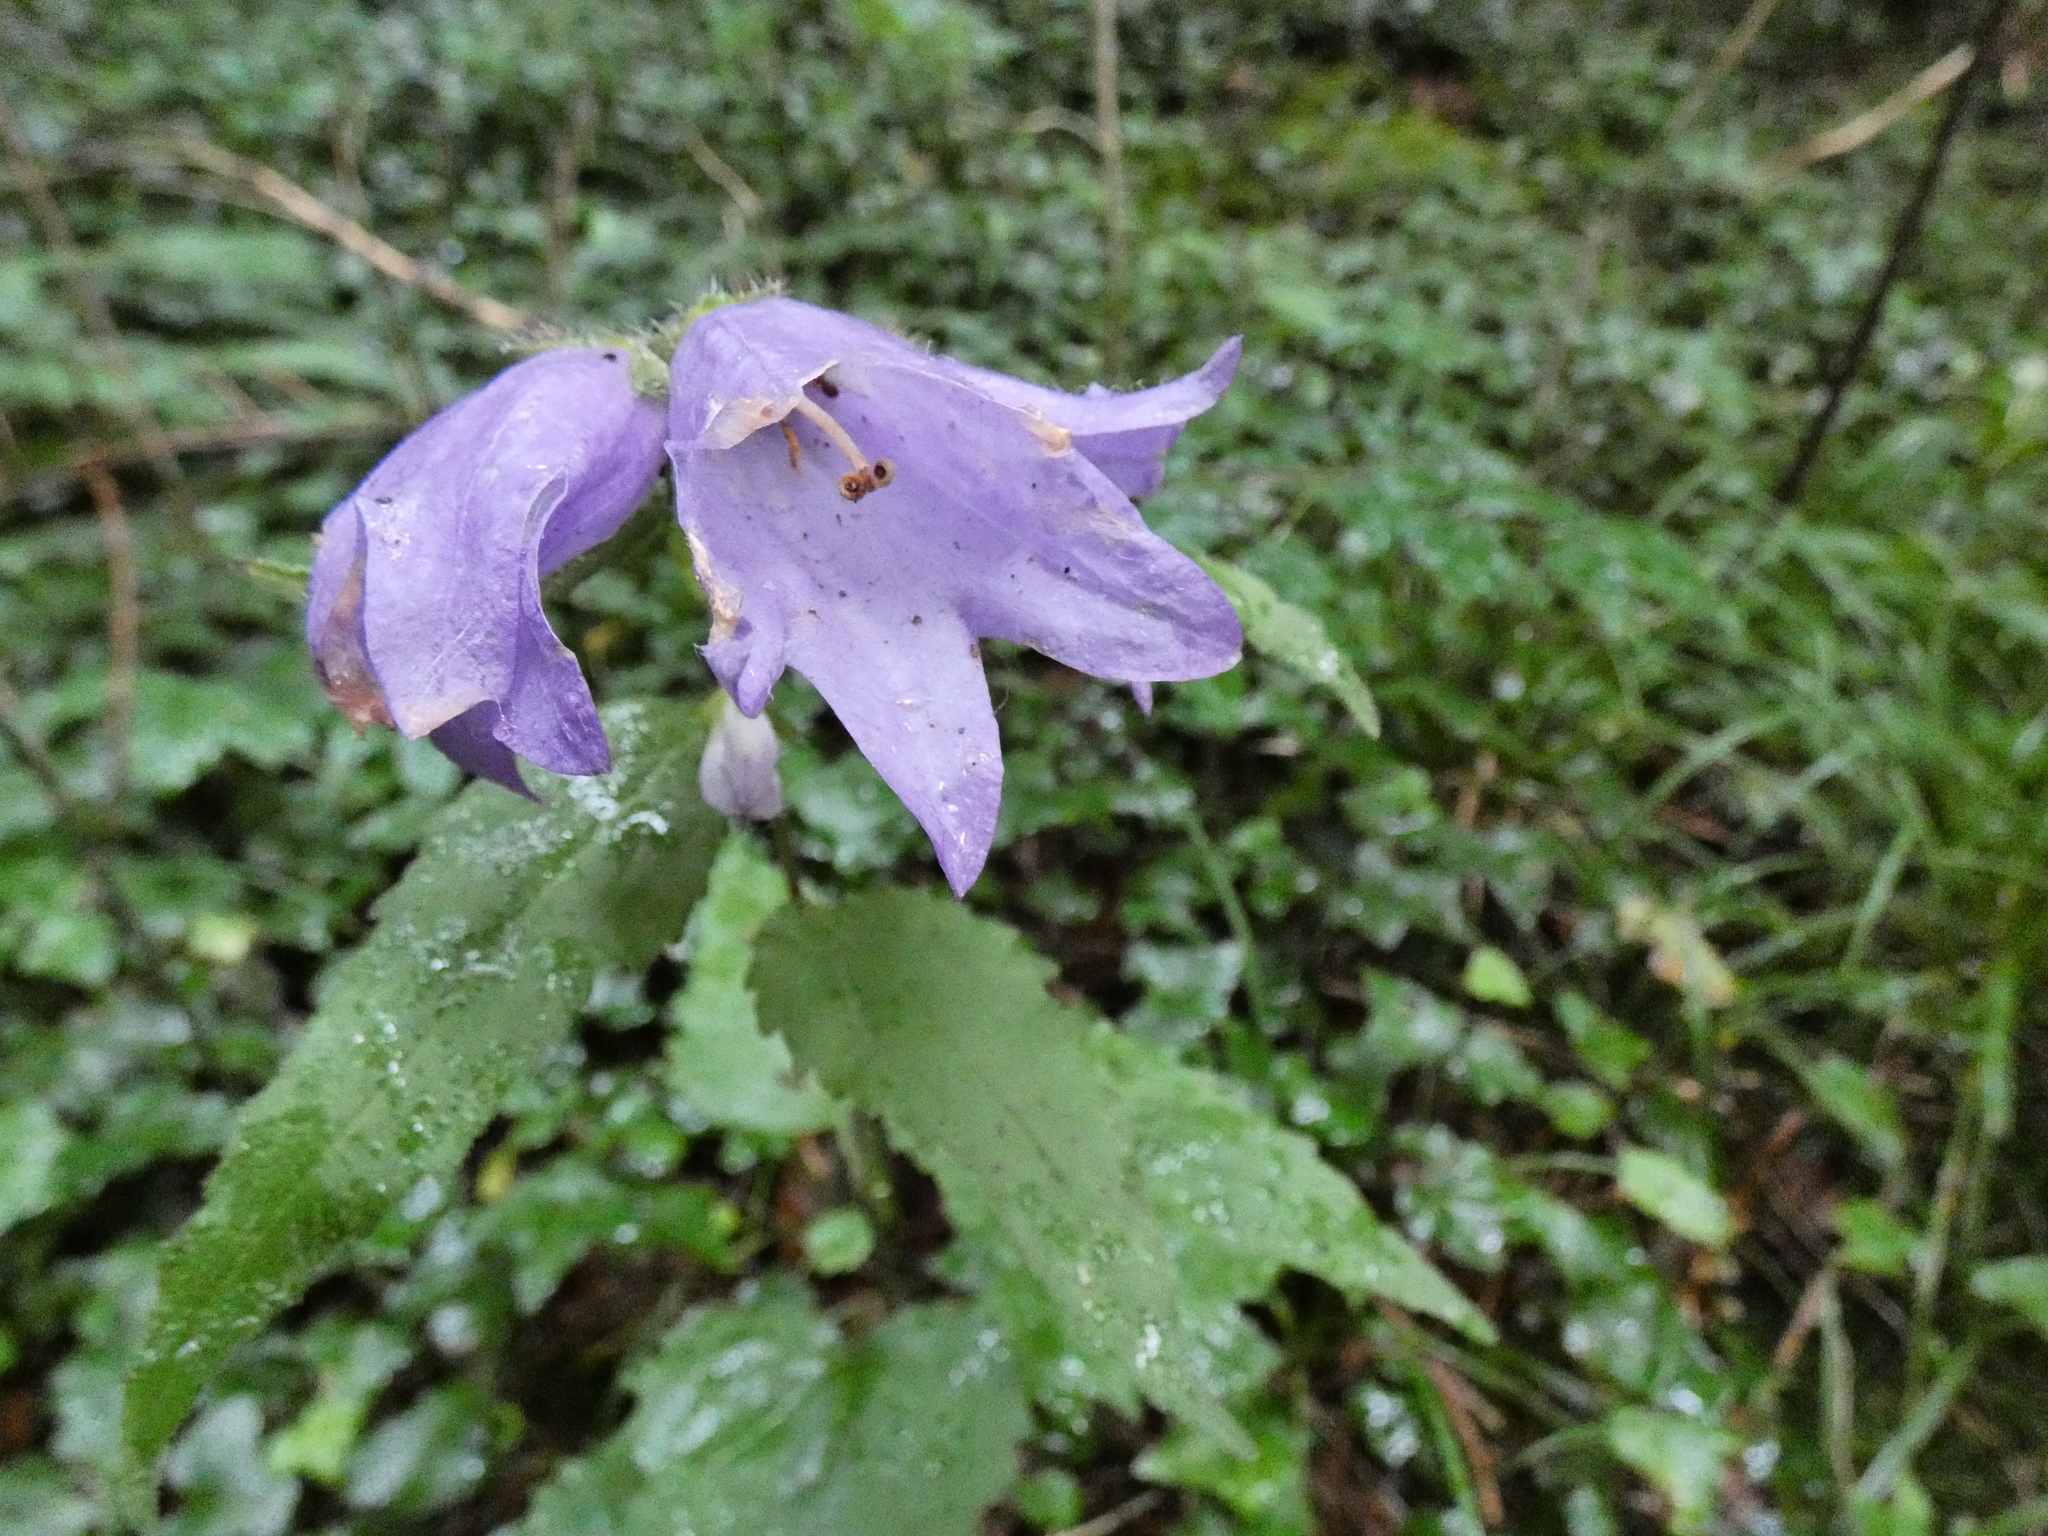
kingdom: Plantae
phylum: Tracheophyta
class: Magnoliopsida
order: Asterales
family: Campanulaceae
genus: Campanula
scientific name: Campanula trachelium
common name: Nettle-leaved bellflower
